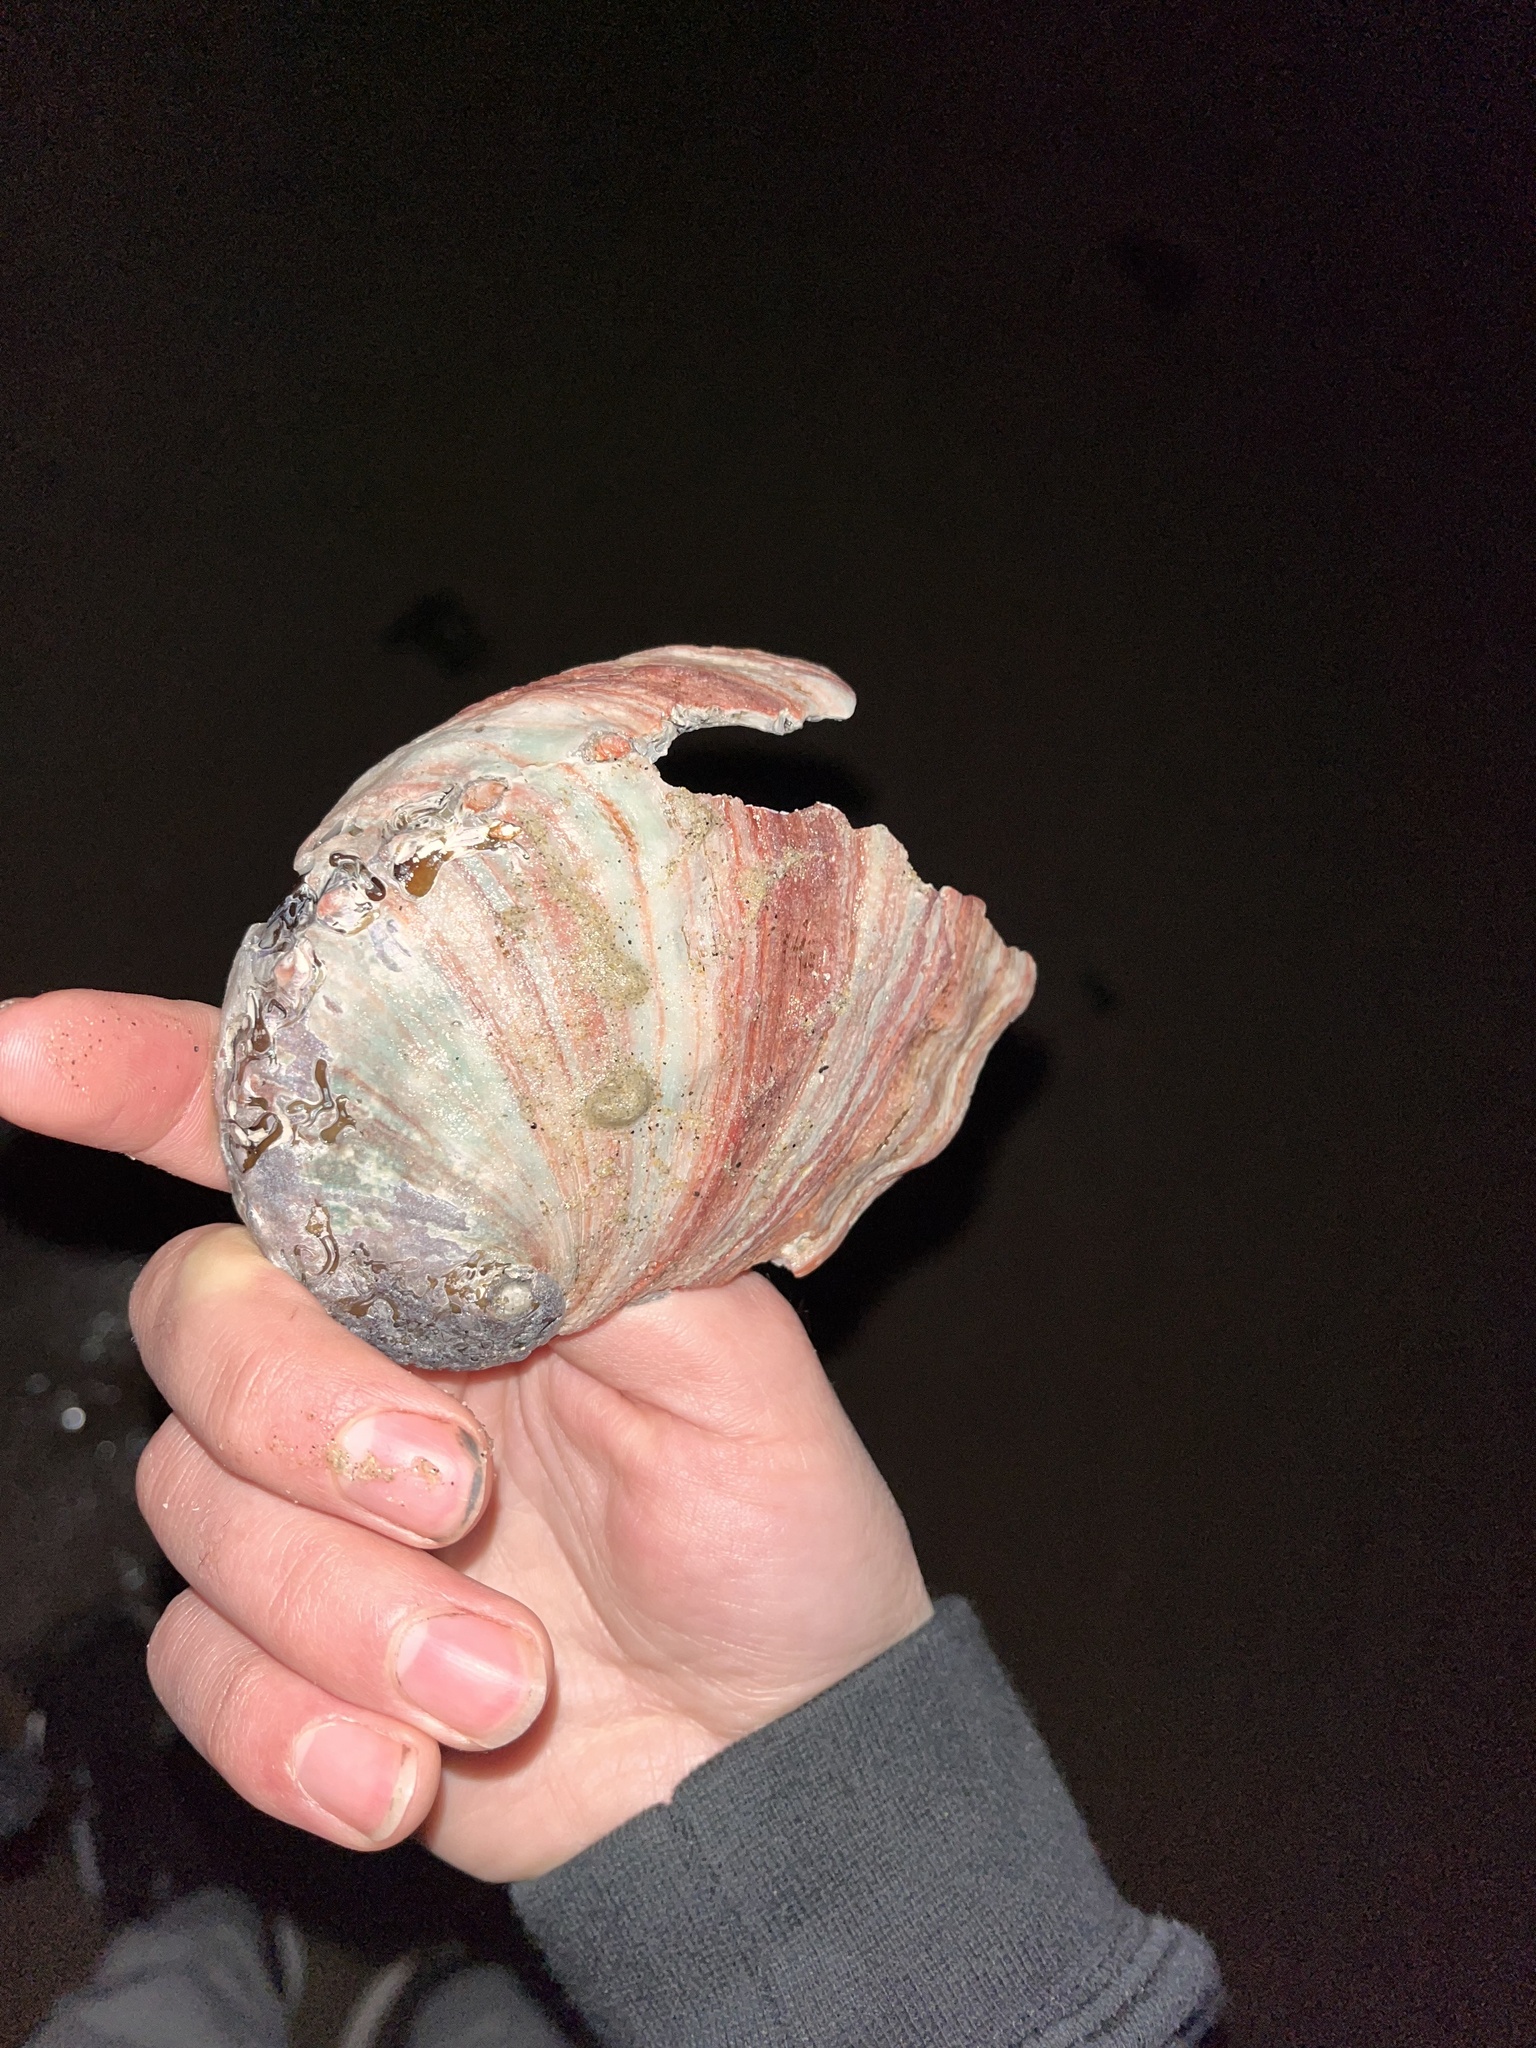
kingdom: Animalia
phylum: Mollusca
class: Gastropoda
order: Lepetellida
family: Haliotidae
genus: Haliotis
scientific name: Haliotis rufescens
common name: Red abalone
